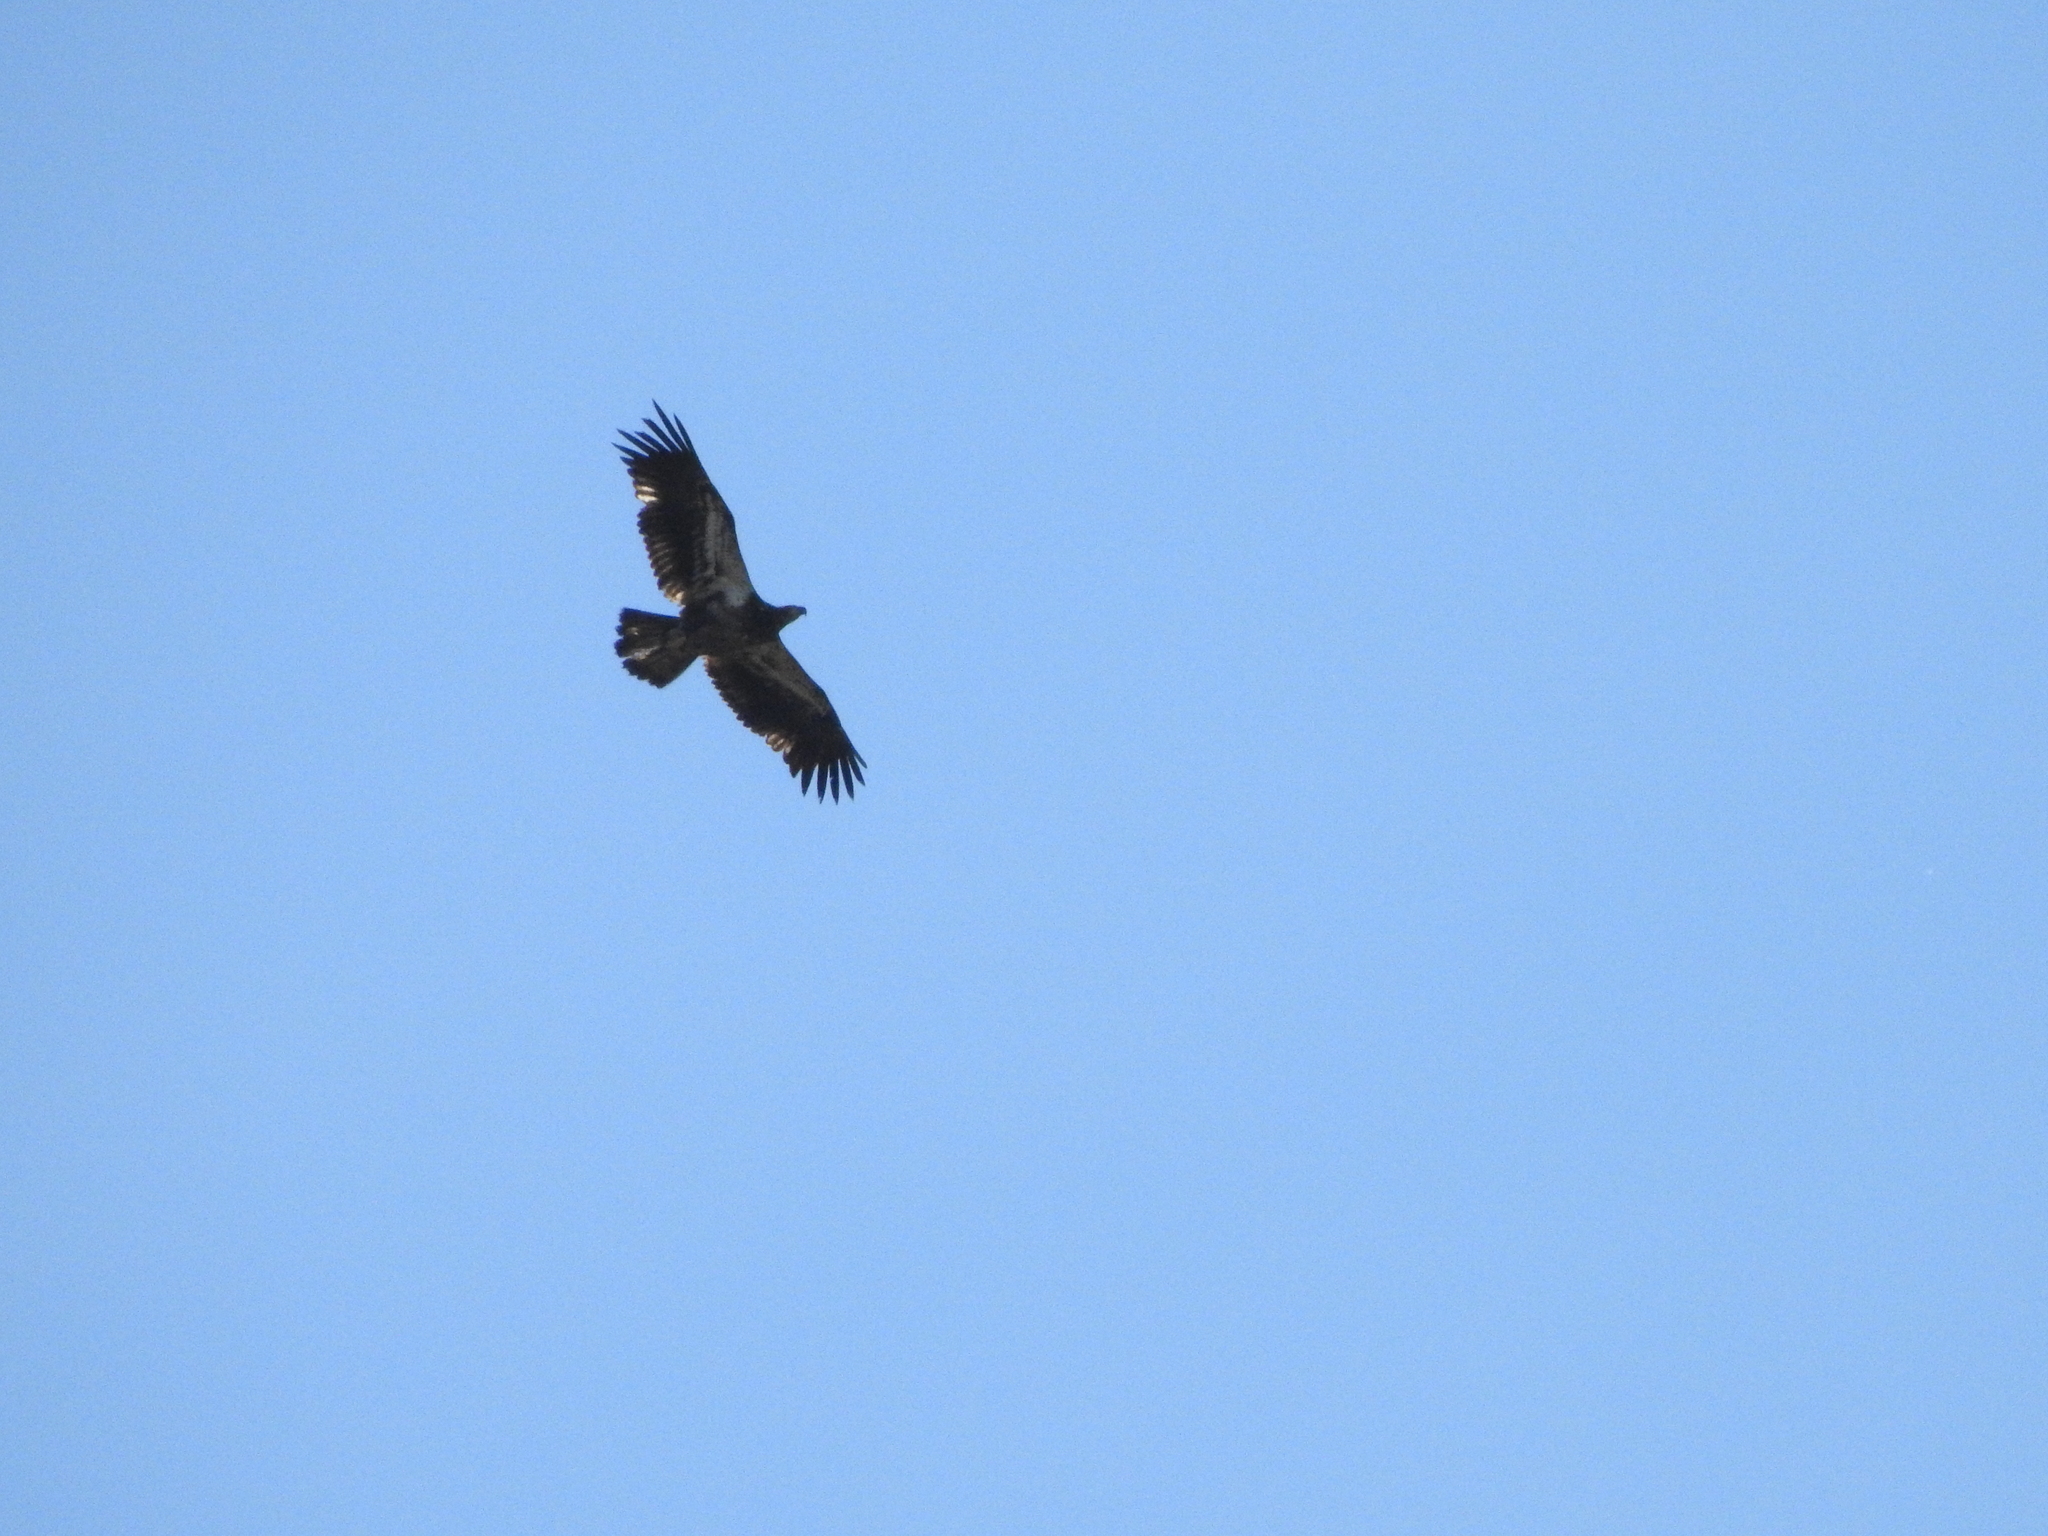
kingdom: Animalia
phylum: Chordata
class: Aves
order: Accipitriformes
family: Accipitridae
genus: Haliaeetus
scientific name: Haliaeetus leucocephalus
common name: Bald eagle
